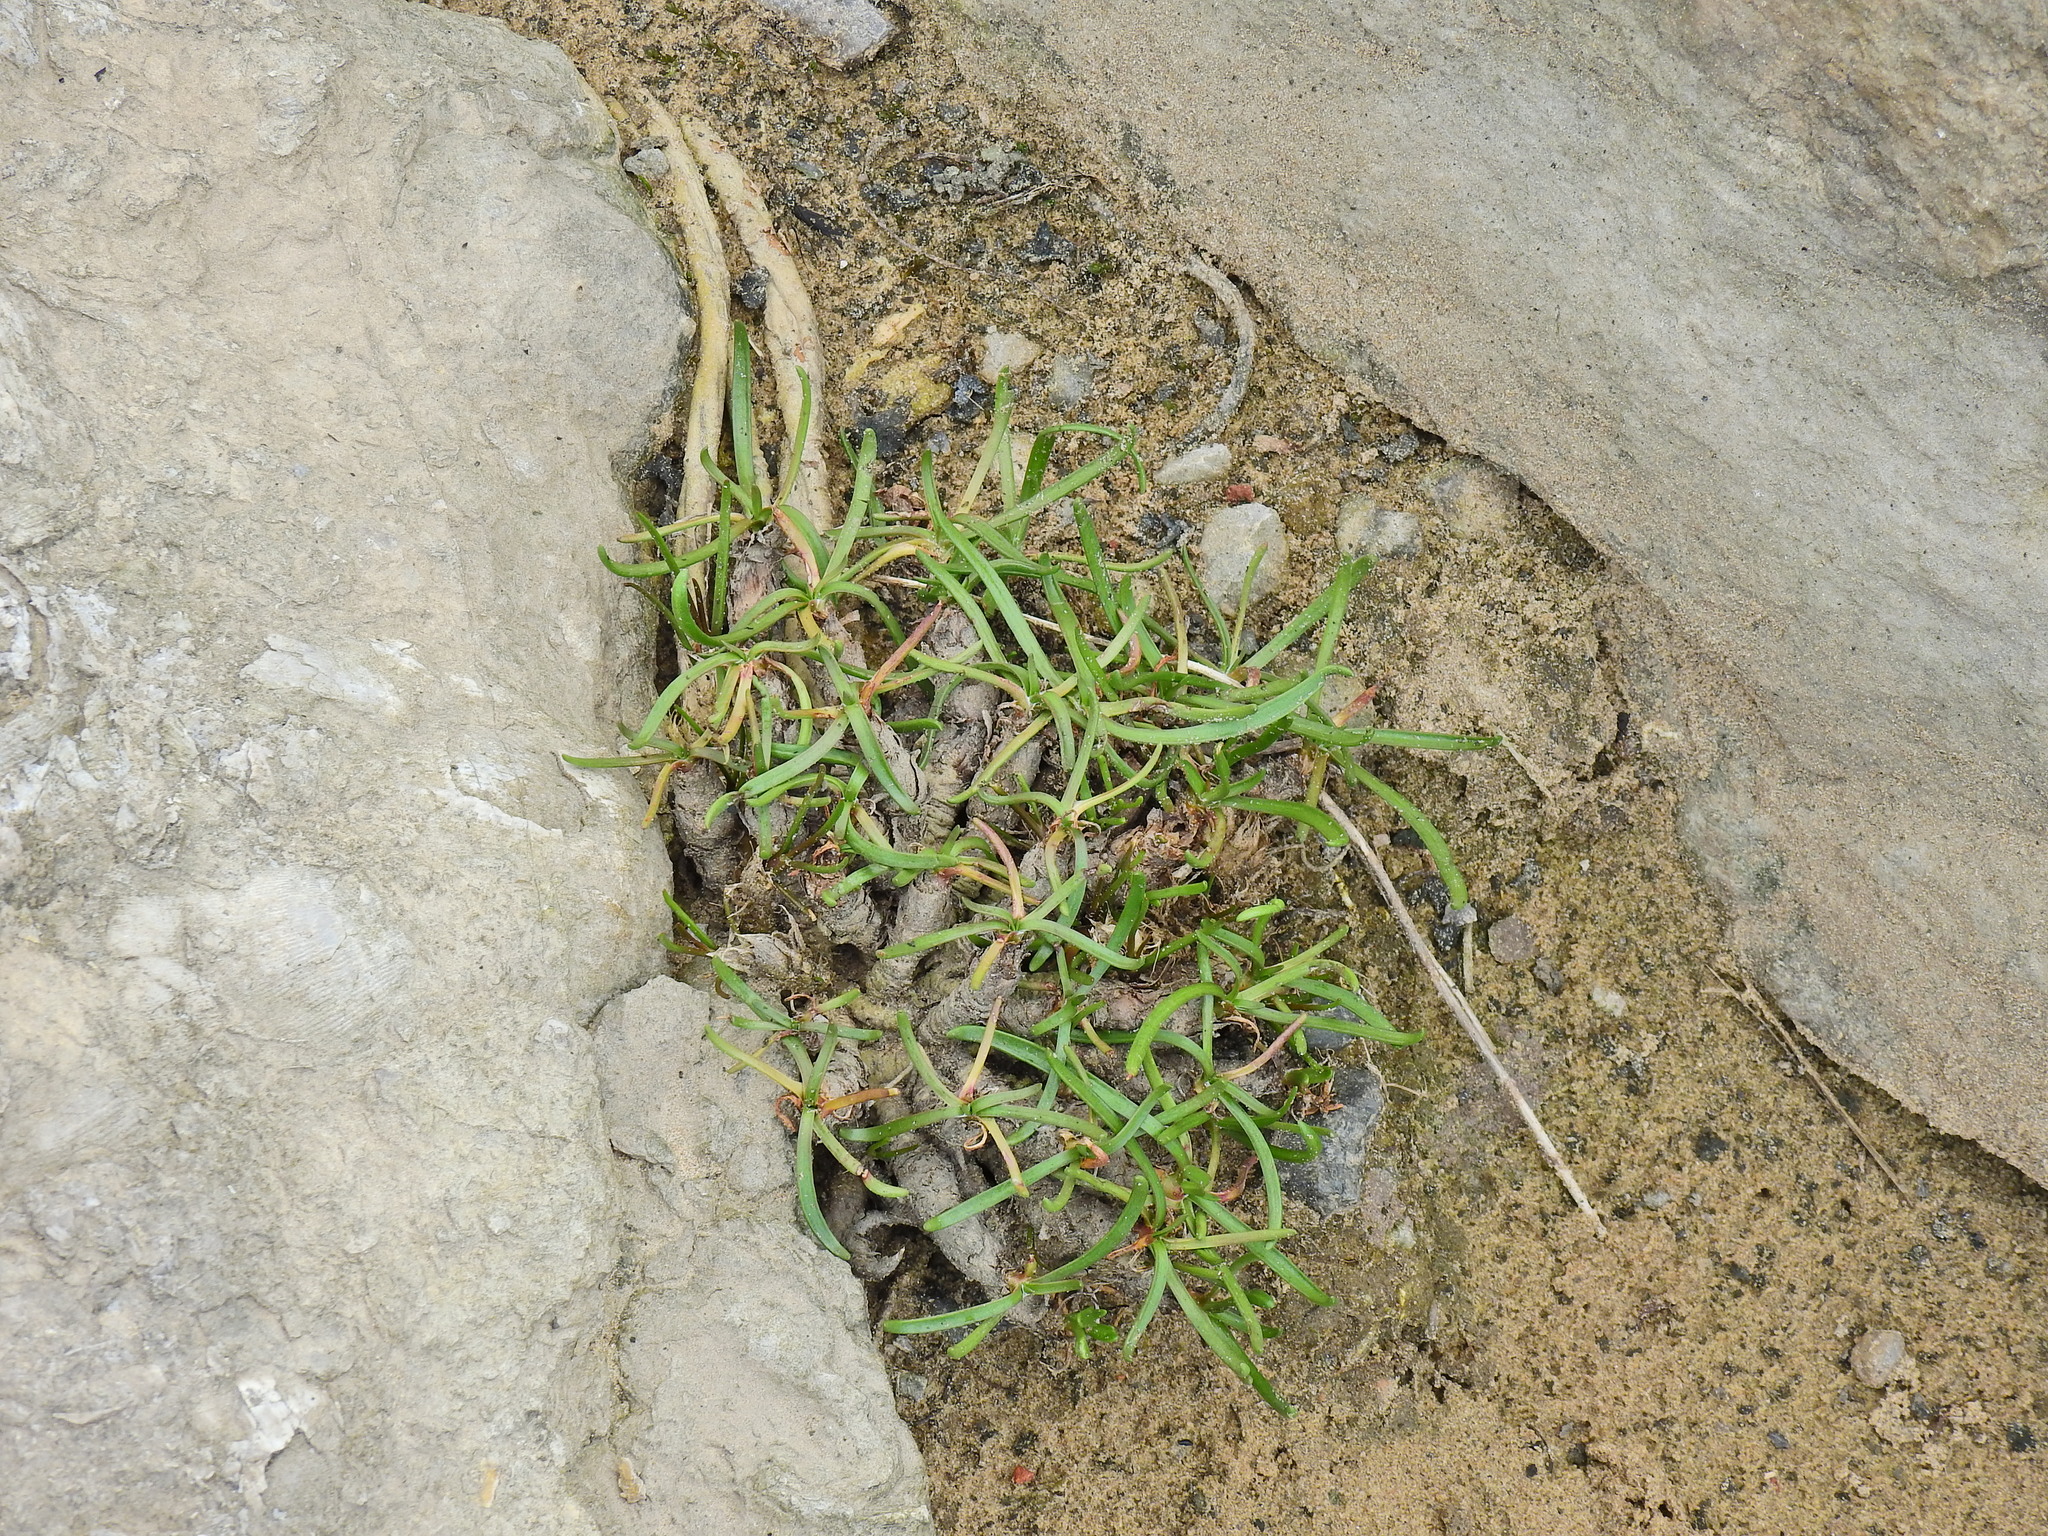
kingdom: Plantae
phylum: Tracheophyta
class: Magnoliopsida
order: Lamiales
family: Plantaginaceae
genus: Plantago
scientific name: Plantago maritima
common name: Sea plantain
